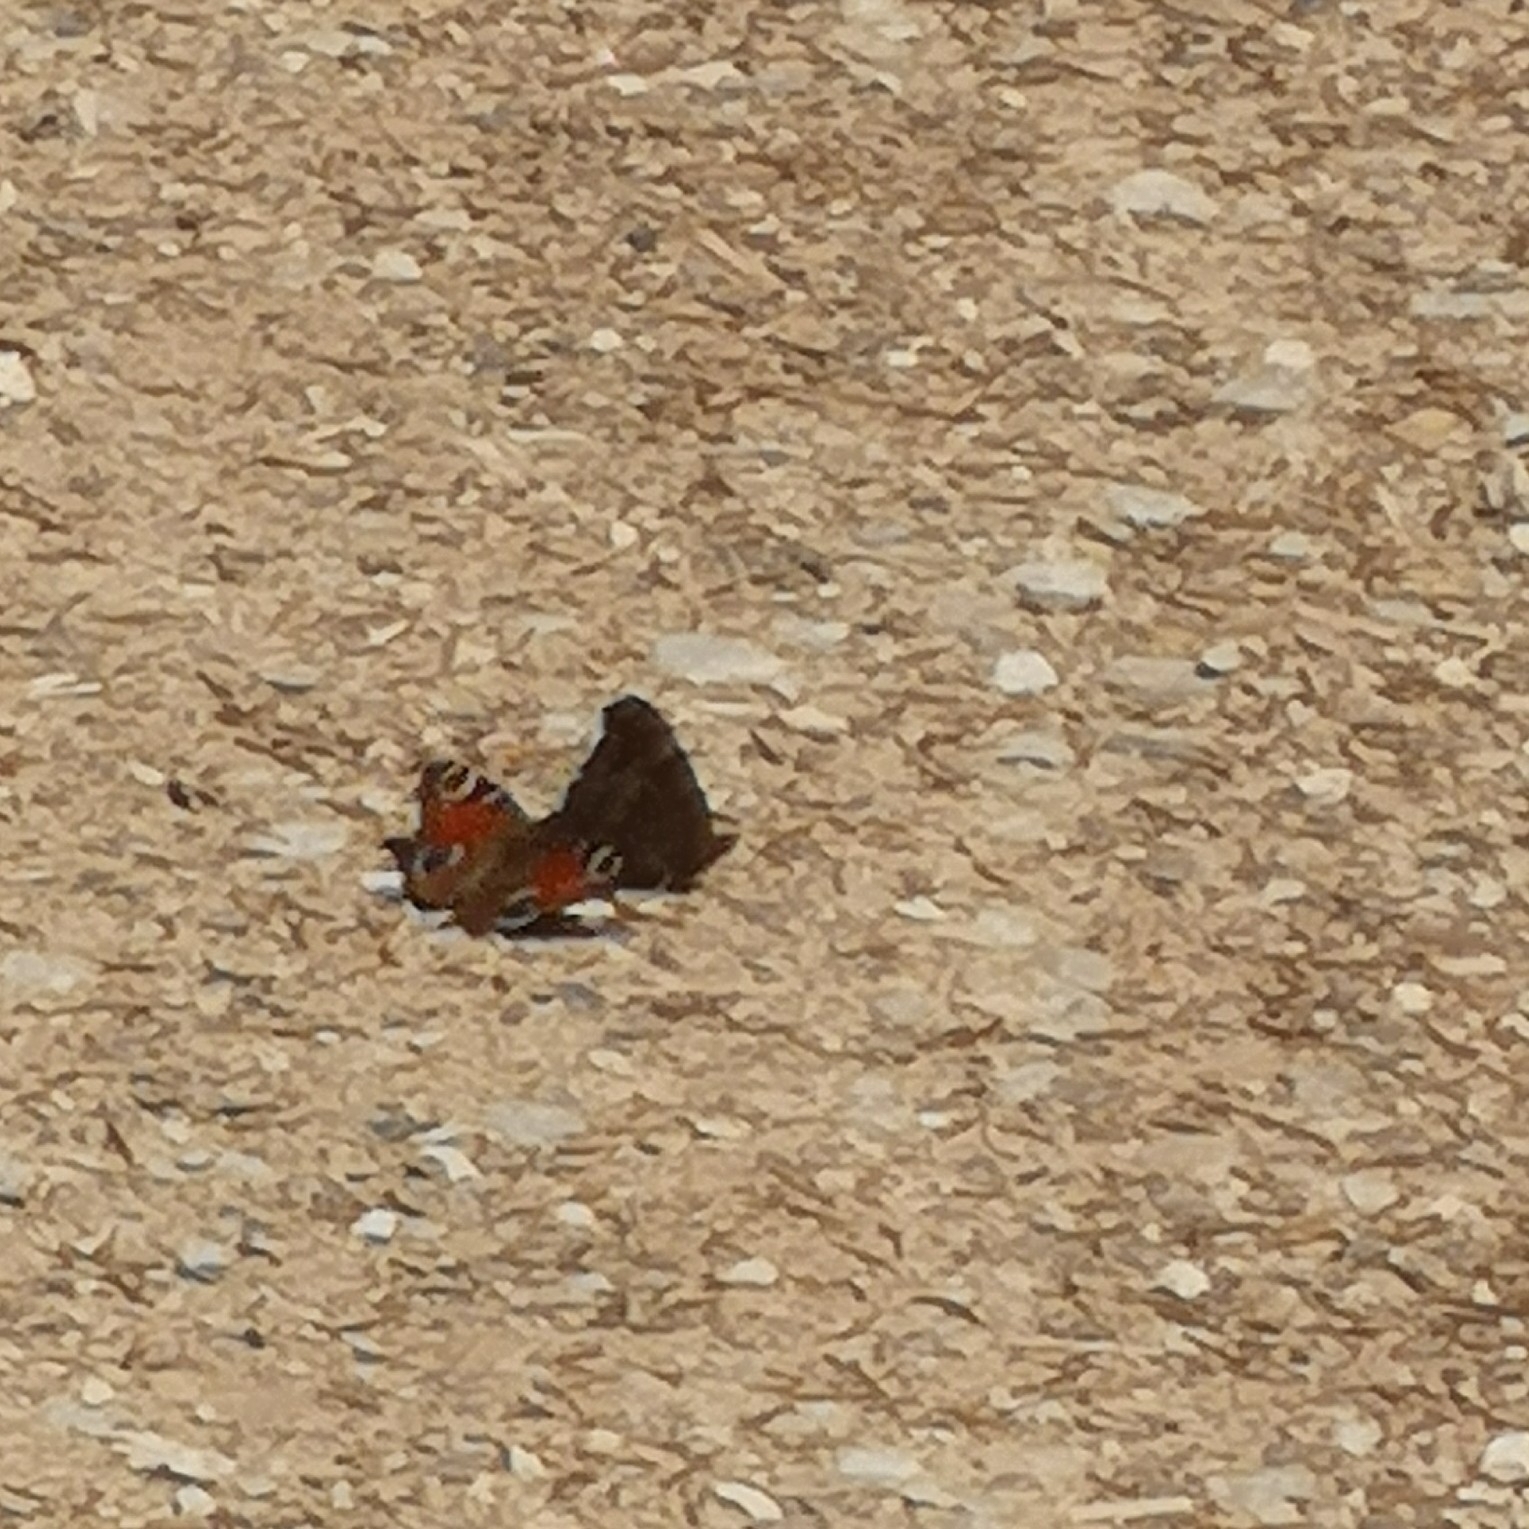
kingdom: Animalia
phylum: Arthropoda
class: Insecta
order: Lepidoptera
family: Nymphalidae
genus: Aglais
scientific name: Aglais io
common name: Peacock
